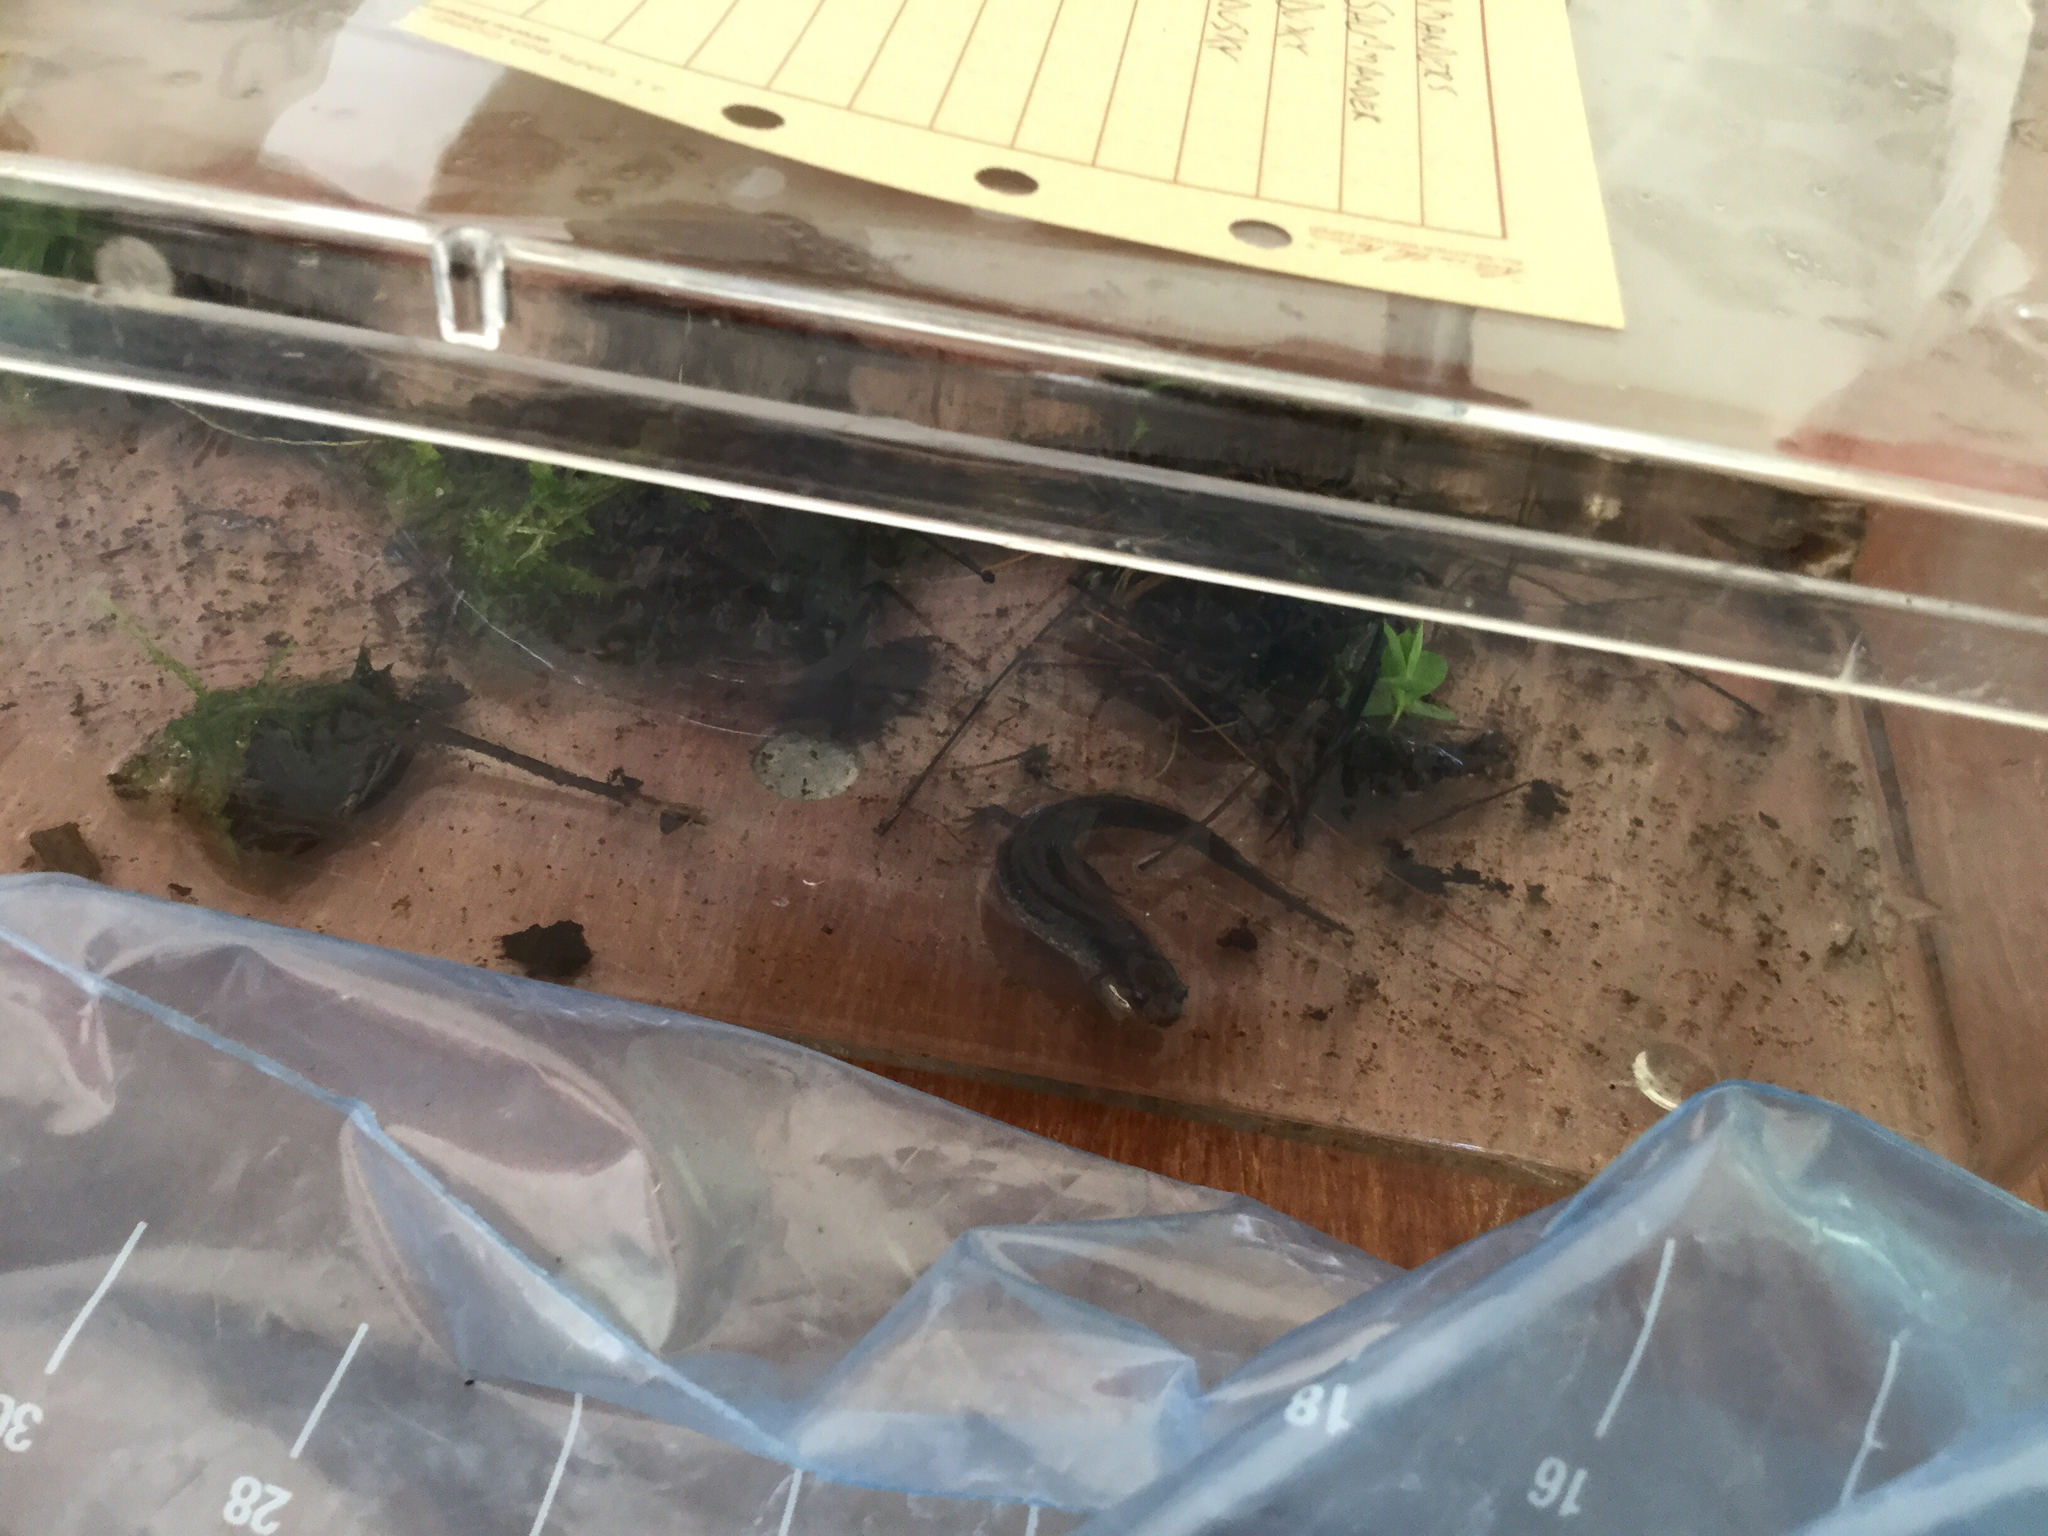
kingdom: Animalia
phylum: Chordata
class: Amphibia
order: Caudata
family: Plethodontidae
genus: Desmognathus
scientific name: Desmognathus fuscus
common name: Northern dusky salamander
